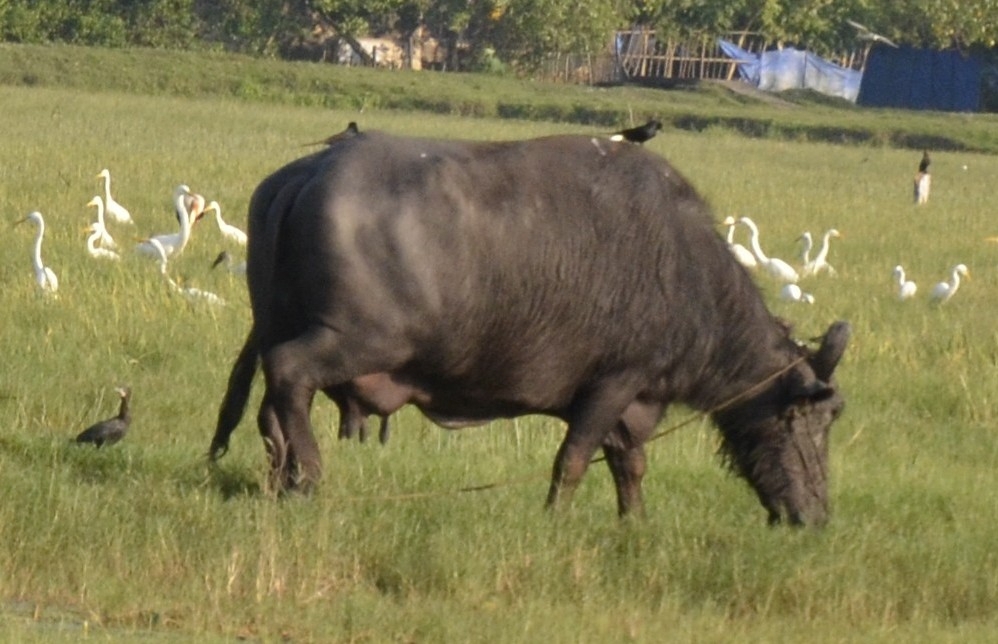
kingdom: Animalia
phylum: Chordata
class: Aves
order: Passeriformes
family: Dicruridae
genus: Dicrurus
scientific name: Dicrurus macrocercus
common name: Black drongo
